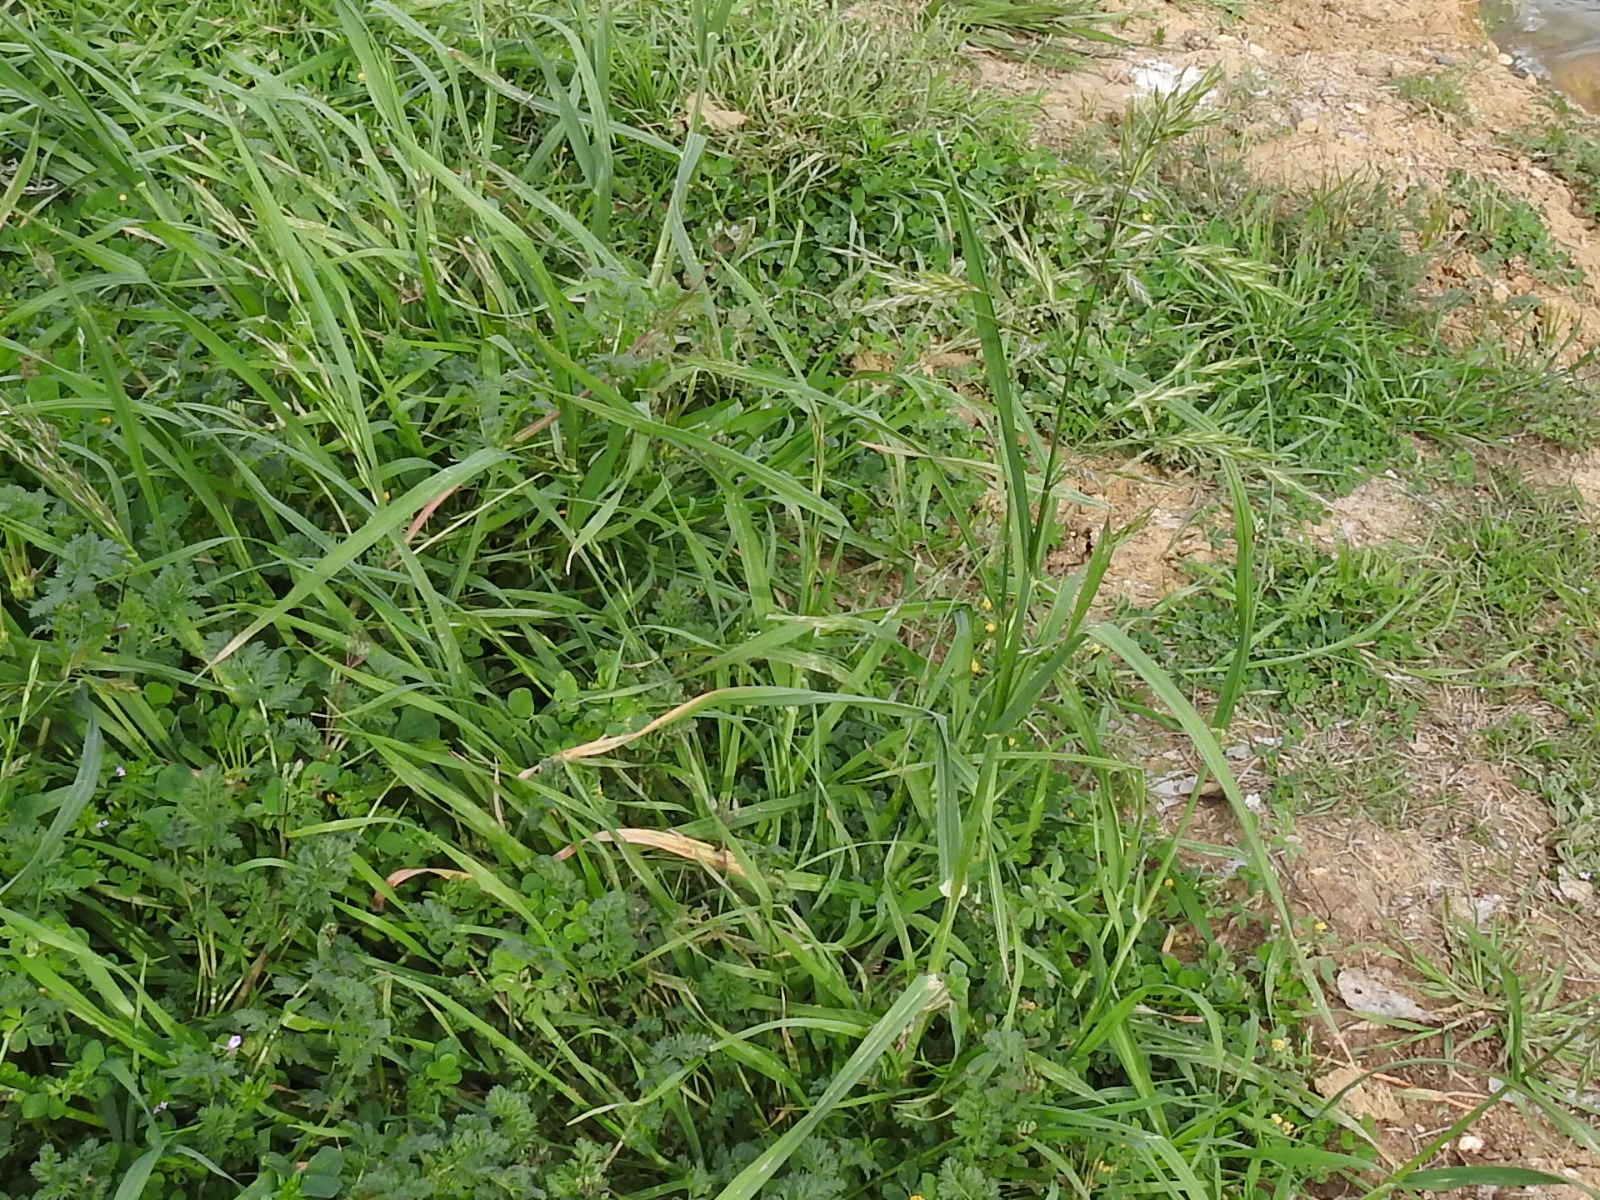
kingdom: Plantae
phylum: Tracheophyta
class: Liliopsida
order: Poales
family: Poaceae
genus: Bromus
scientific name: Bromus catharticus
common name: Rescuegrass
